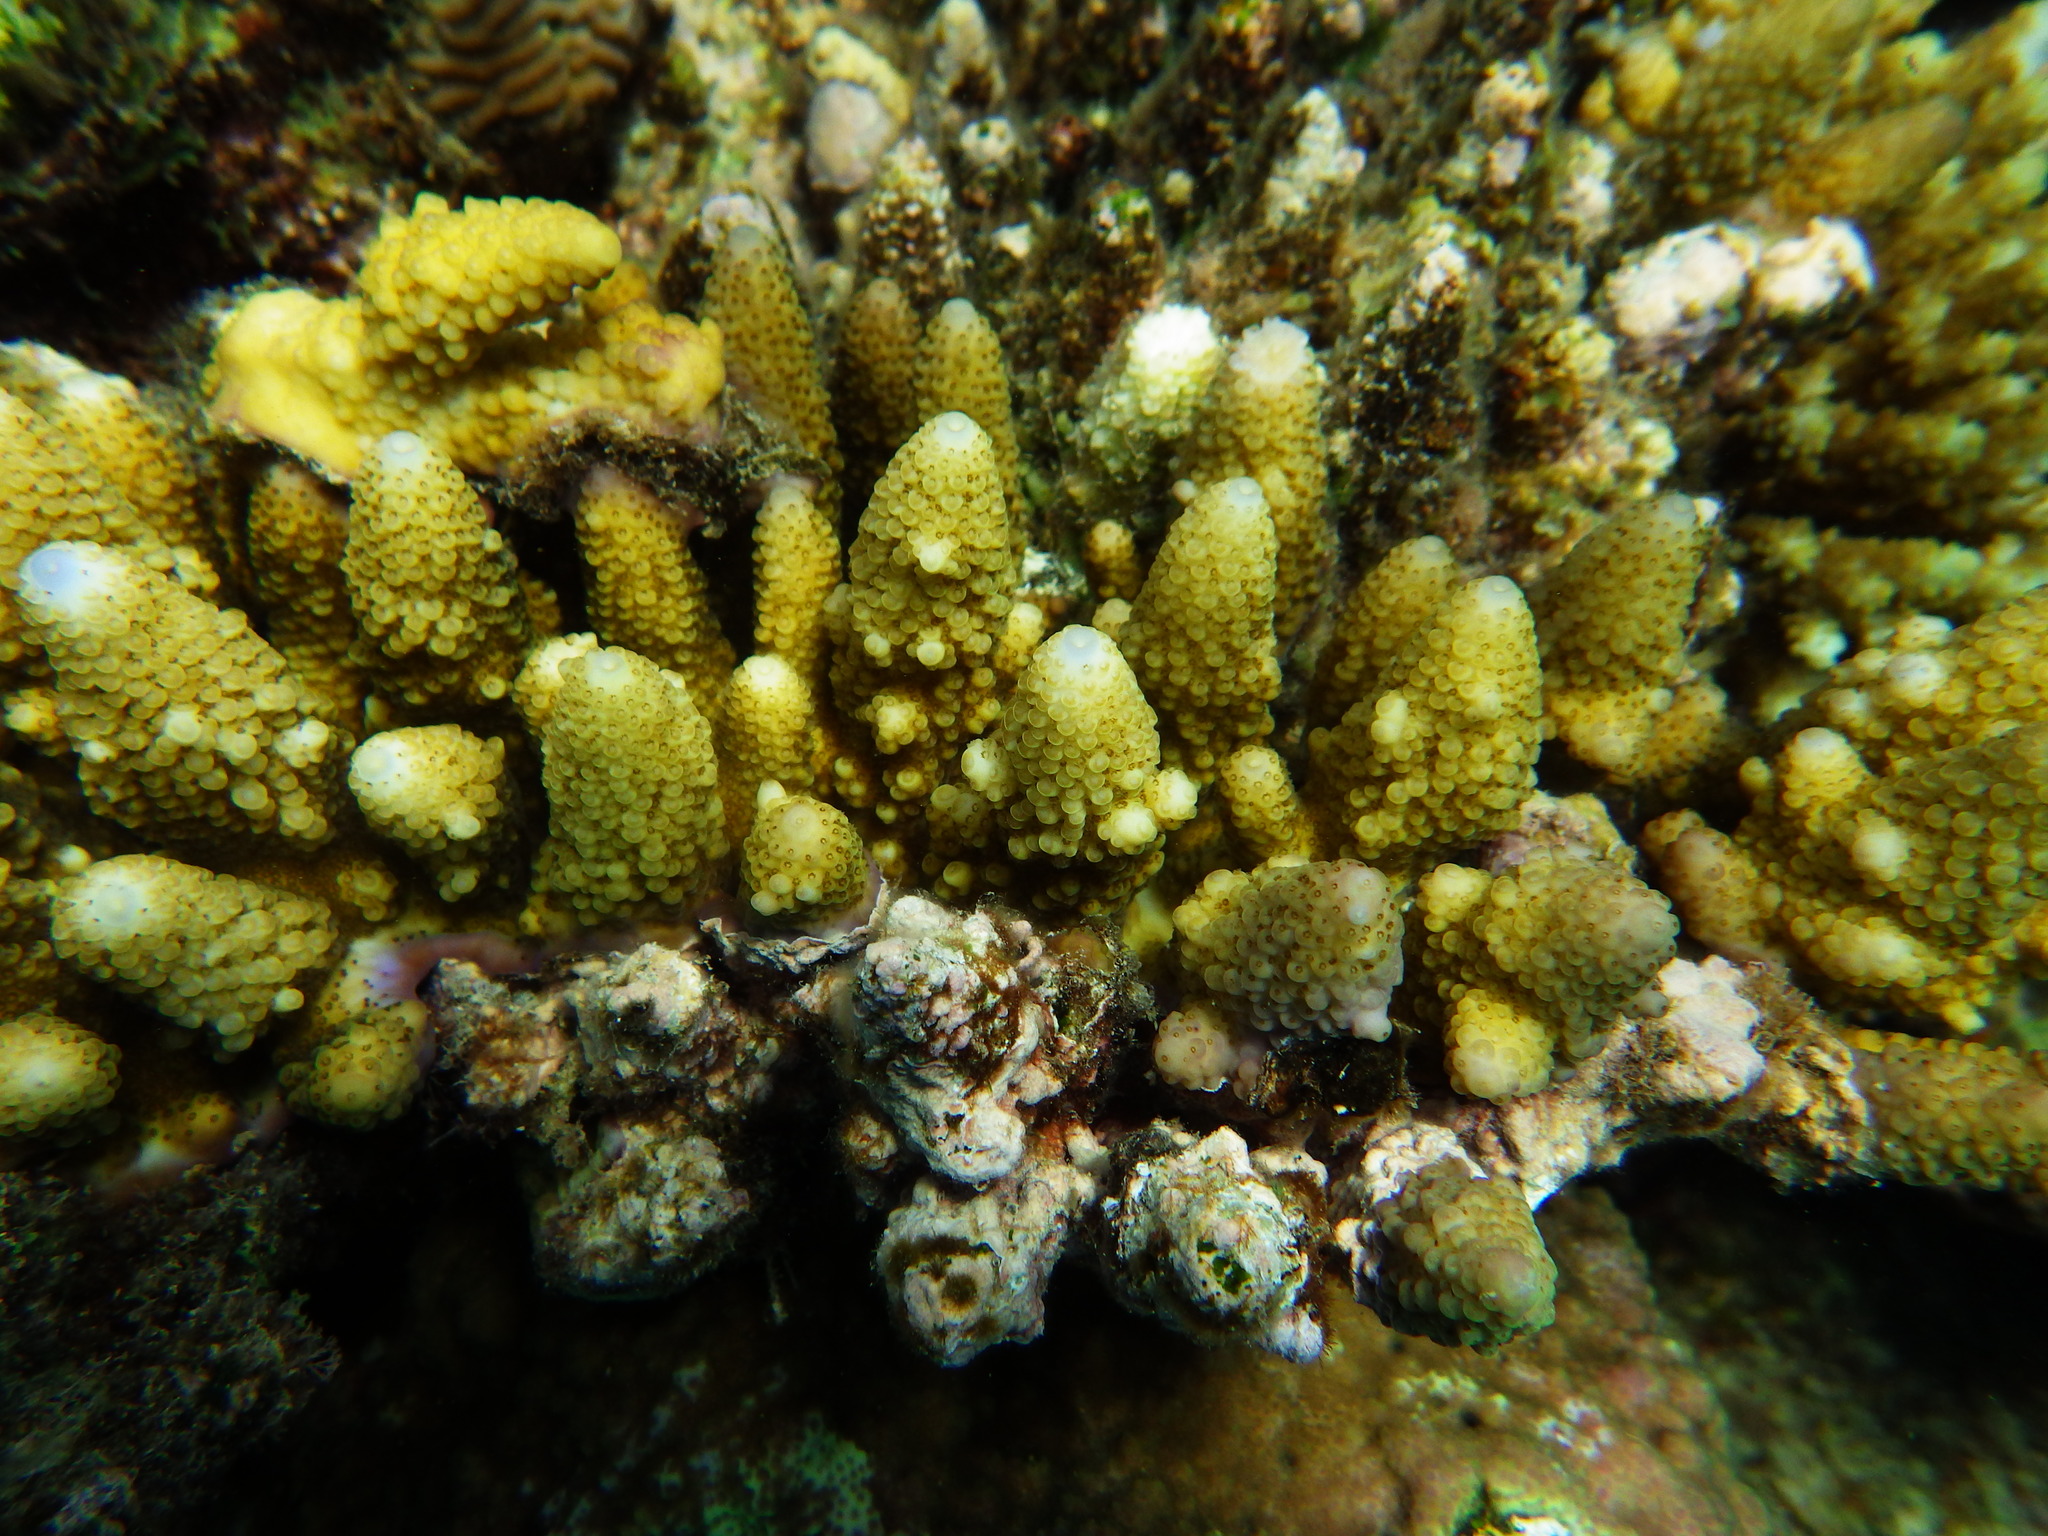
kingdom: Animalia
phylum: Cnidaria
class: Anthozoa
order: Scleractinia
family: Acroporidae
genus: Acropora
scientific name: Acropora gemmifera
